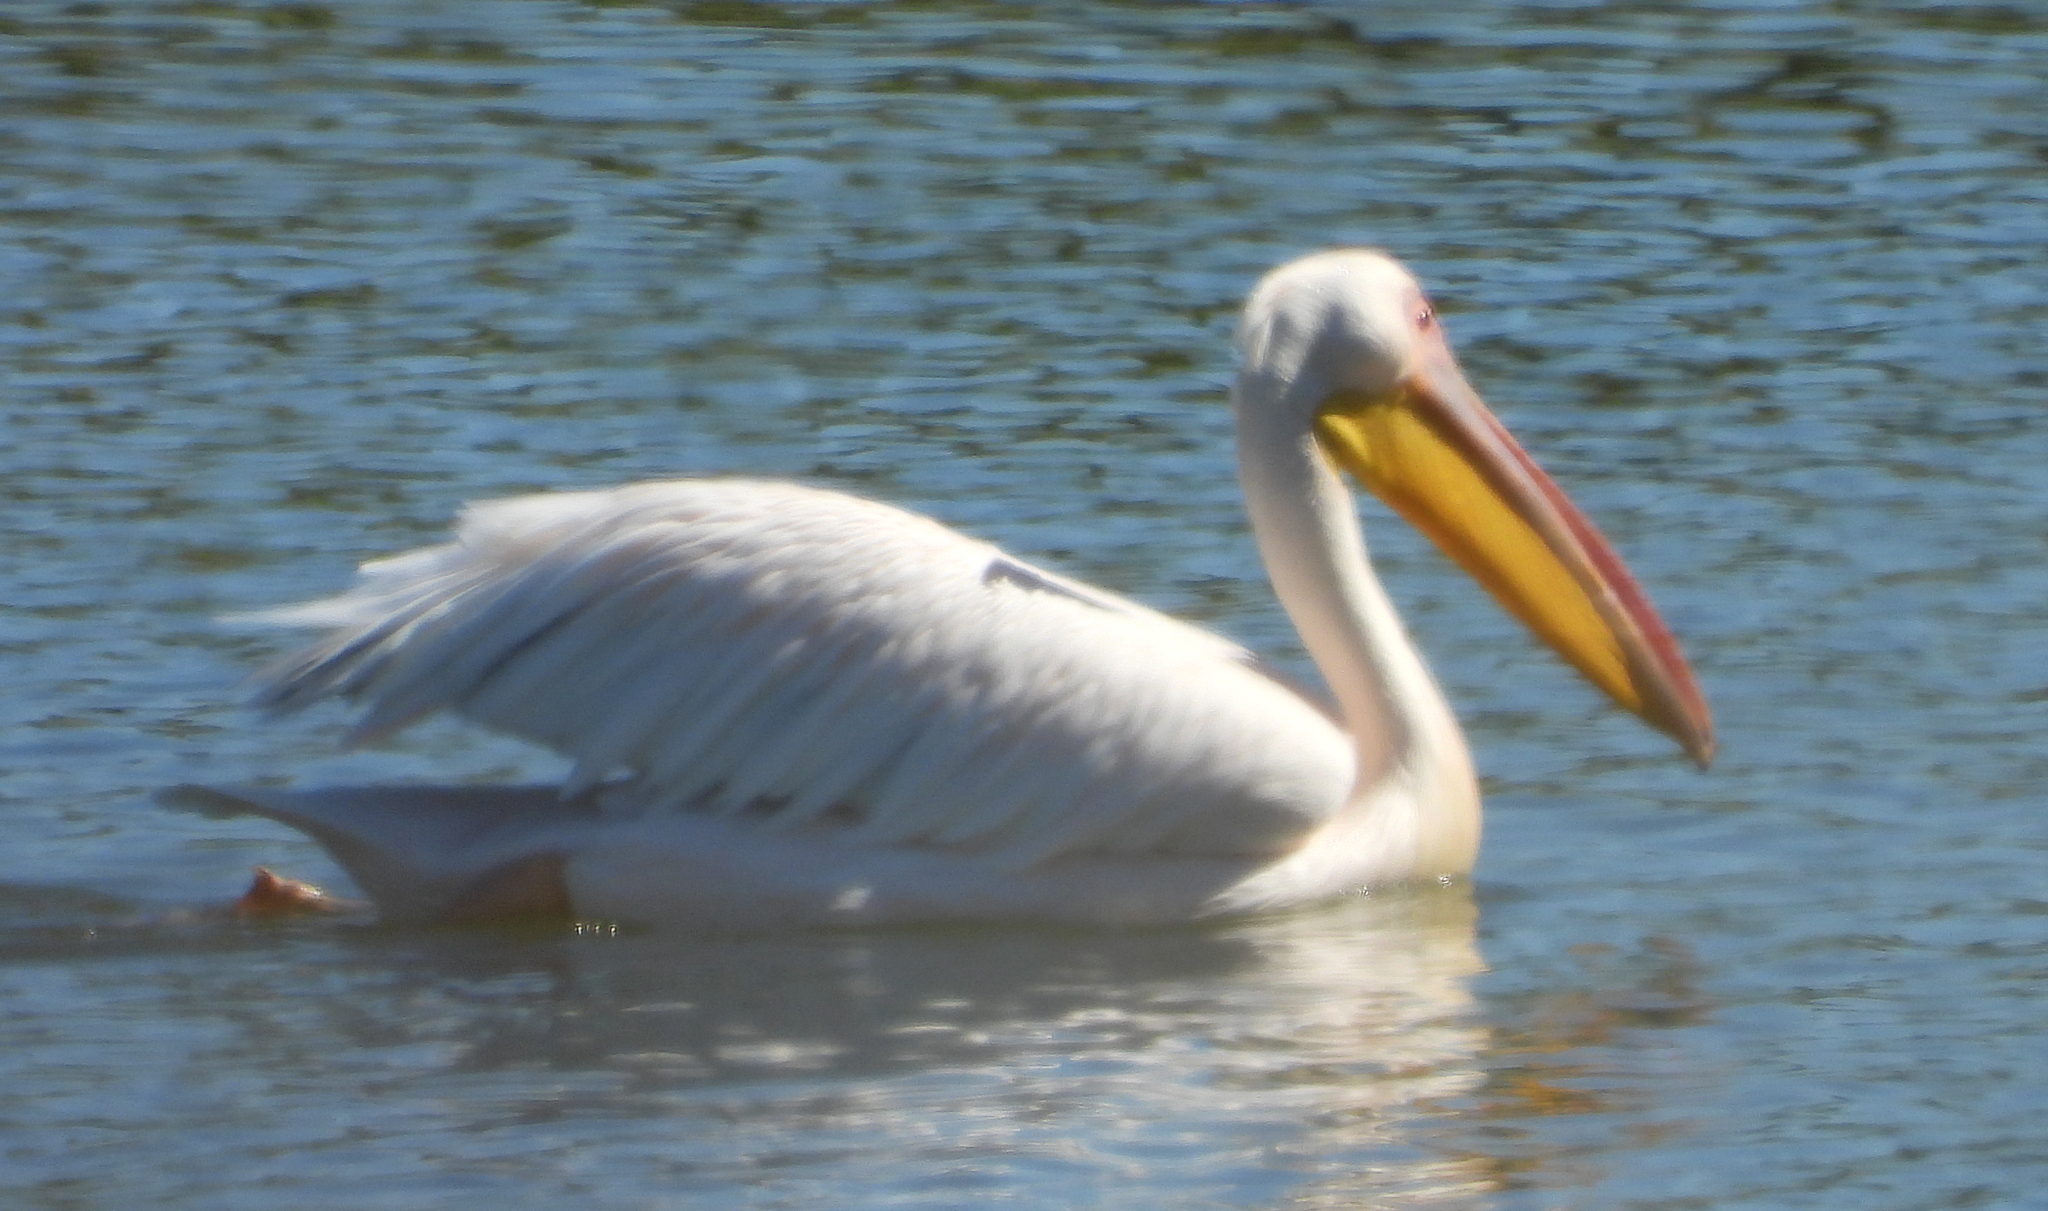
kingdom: Animalia
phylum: Chordata
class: Aves
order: Pelecaniformes
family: Pelecanidae
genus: Pelecanus
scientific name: Pelecanus onocrotalus
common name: Great white pelican
